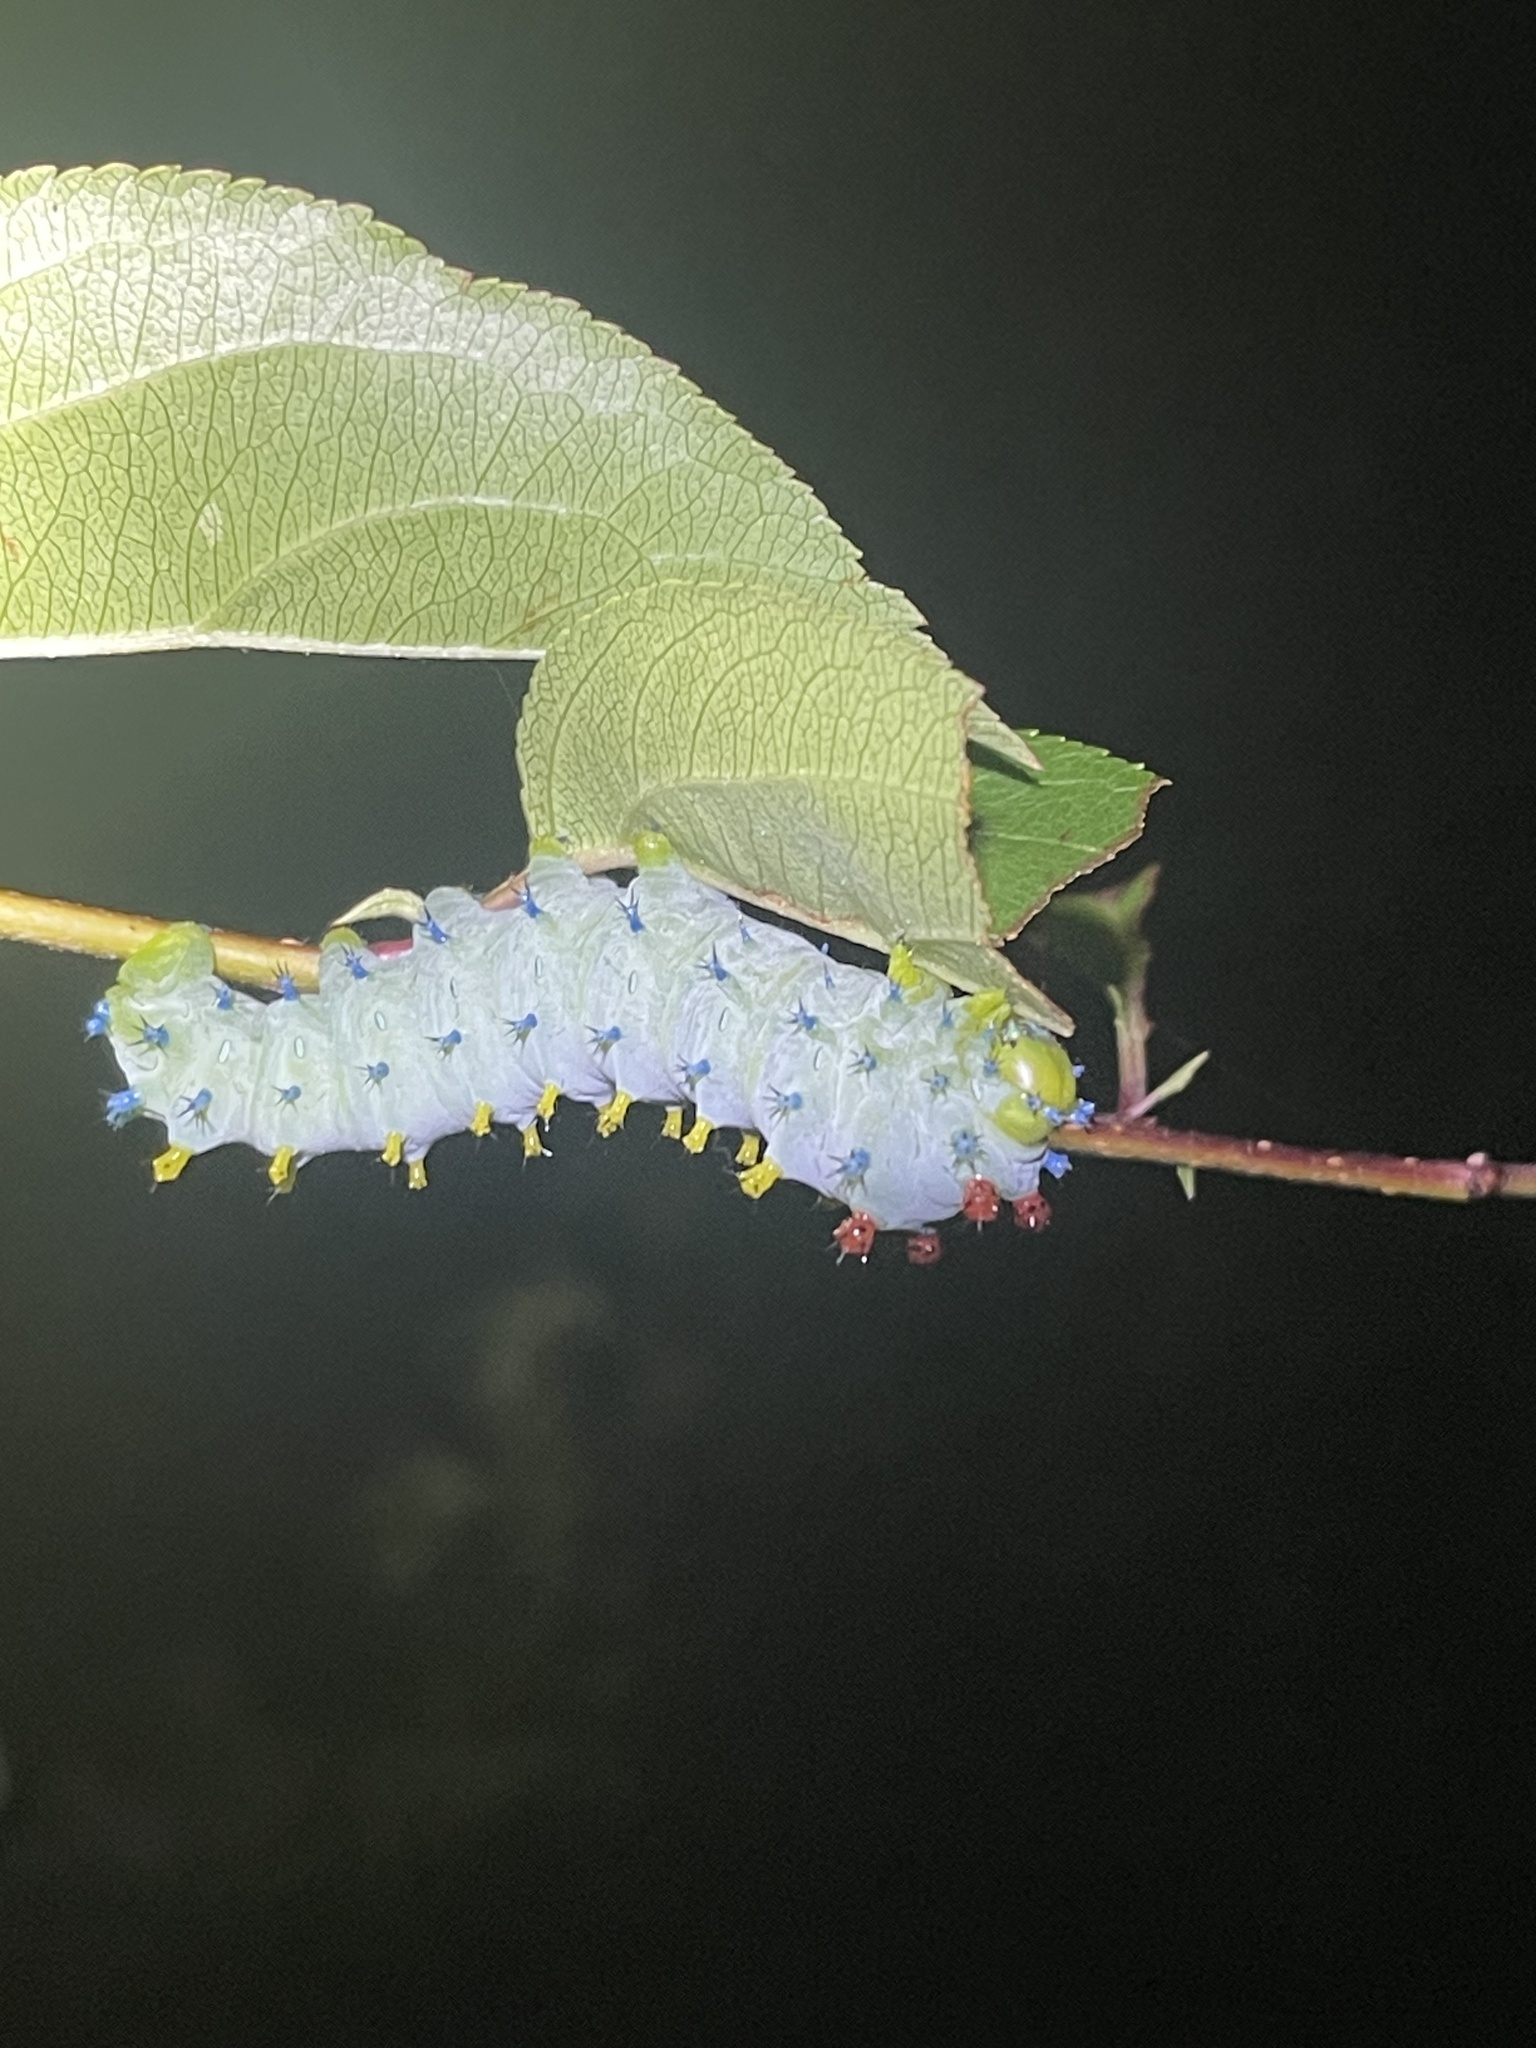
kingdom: Animalia
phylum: Arthropoda
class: Insecta
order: Lepidoptera
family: Saturniidae
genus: Hyalophora
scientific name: Hyalophora cecropia
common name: Cecropia silkmoth
